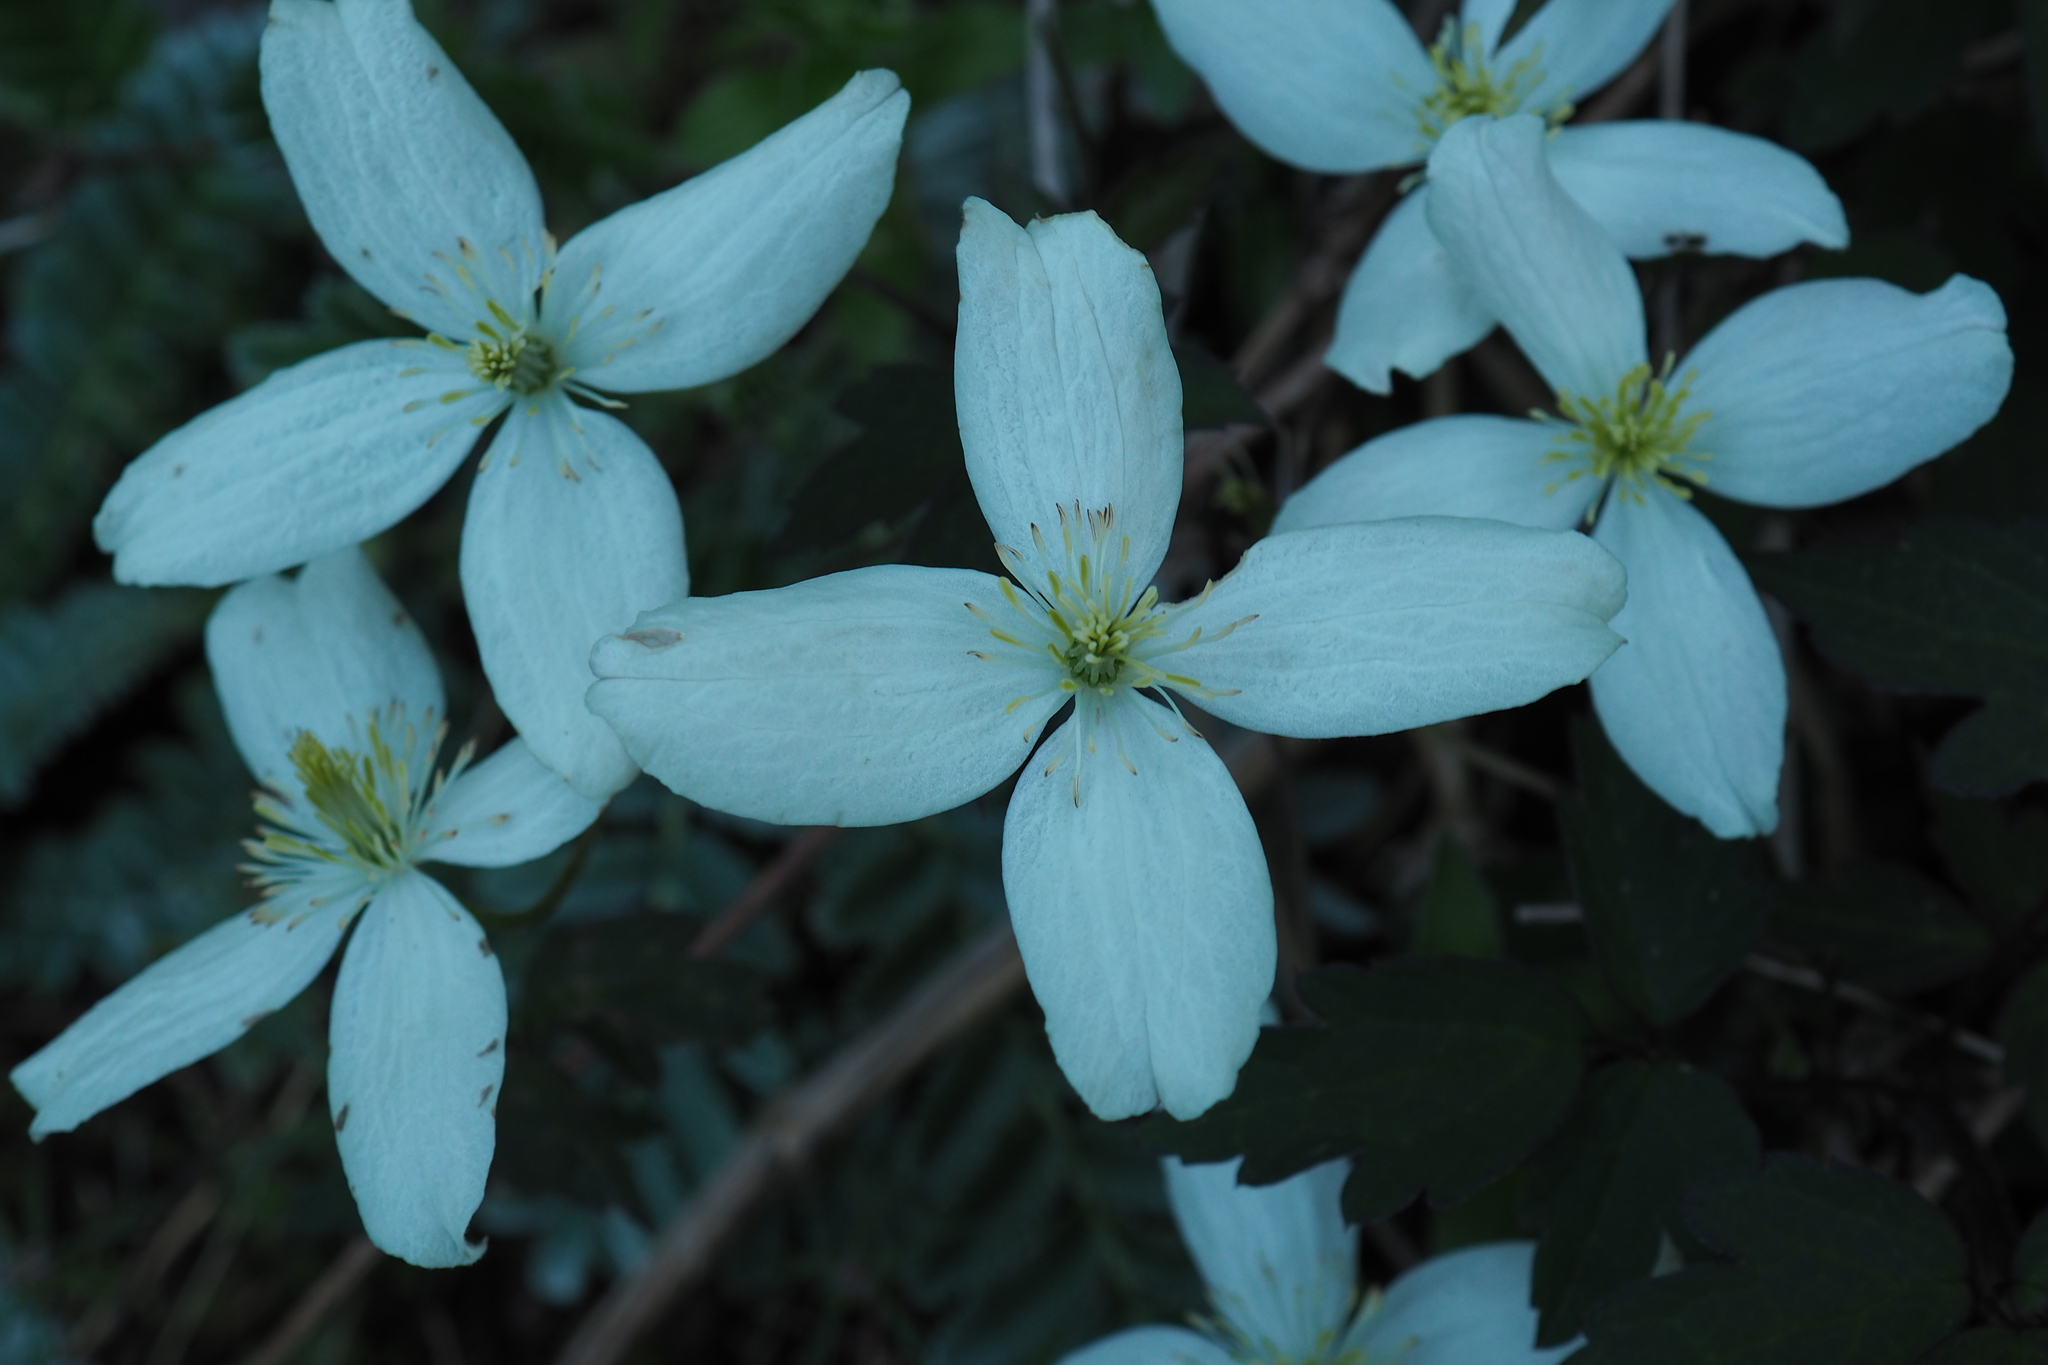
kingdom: Plantae
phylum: Tracheophyta
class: Magnoliopsida
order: Ranunculales
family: Ranunculaceae
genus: Clematis
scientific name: Clematis montana
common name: Himalayan clematis
